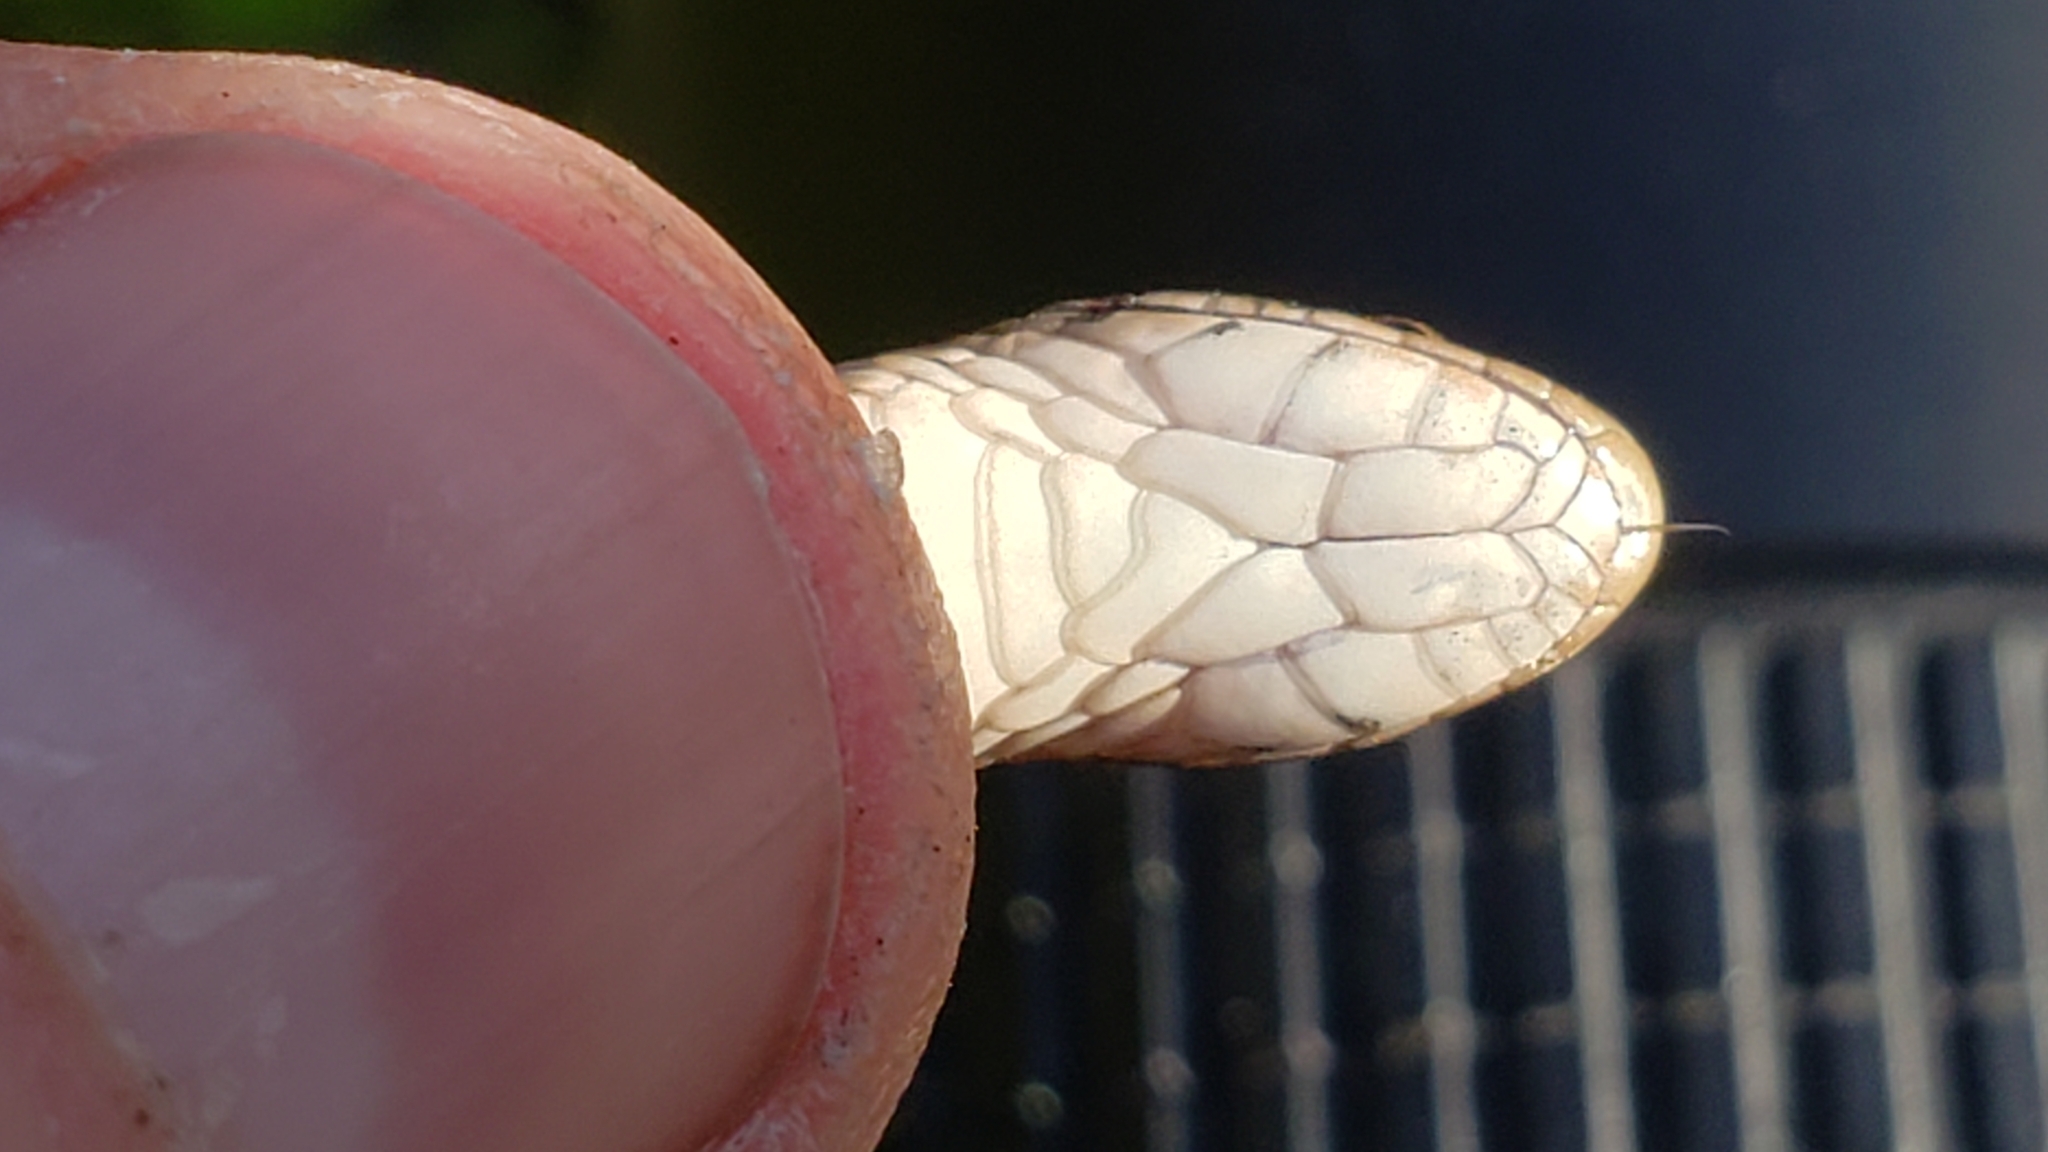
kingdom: Animalia
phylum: Chordata
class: Squamata
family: Colubridae
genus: Storeria
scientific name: Storeria dekayi
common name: (dekay’s) brown snake
